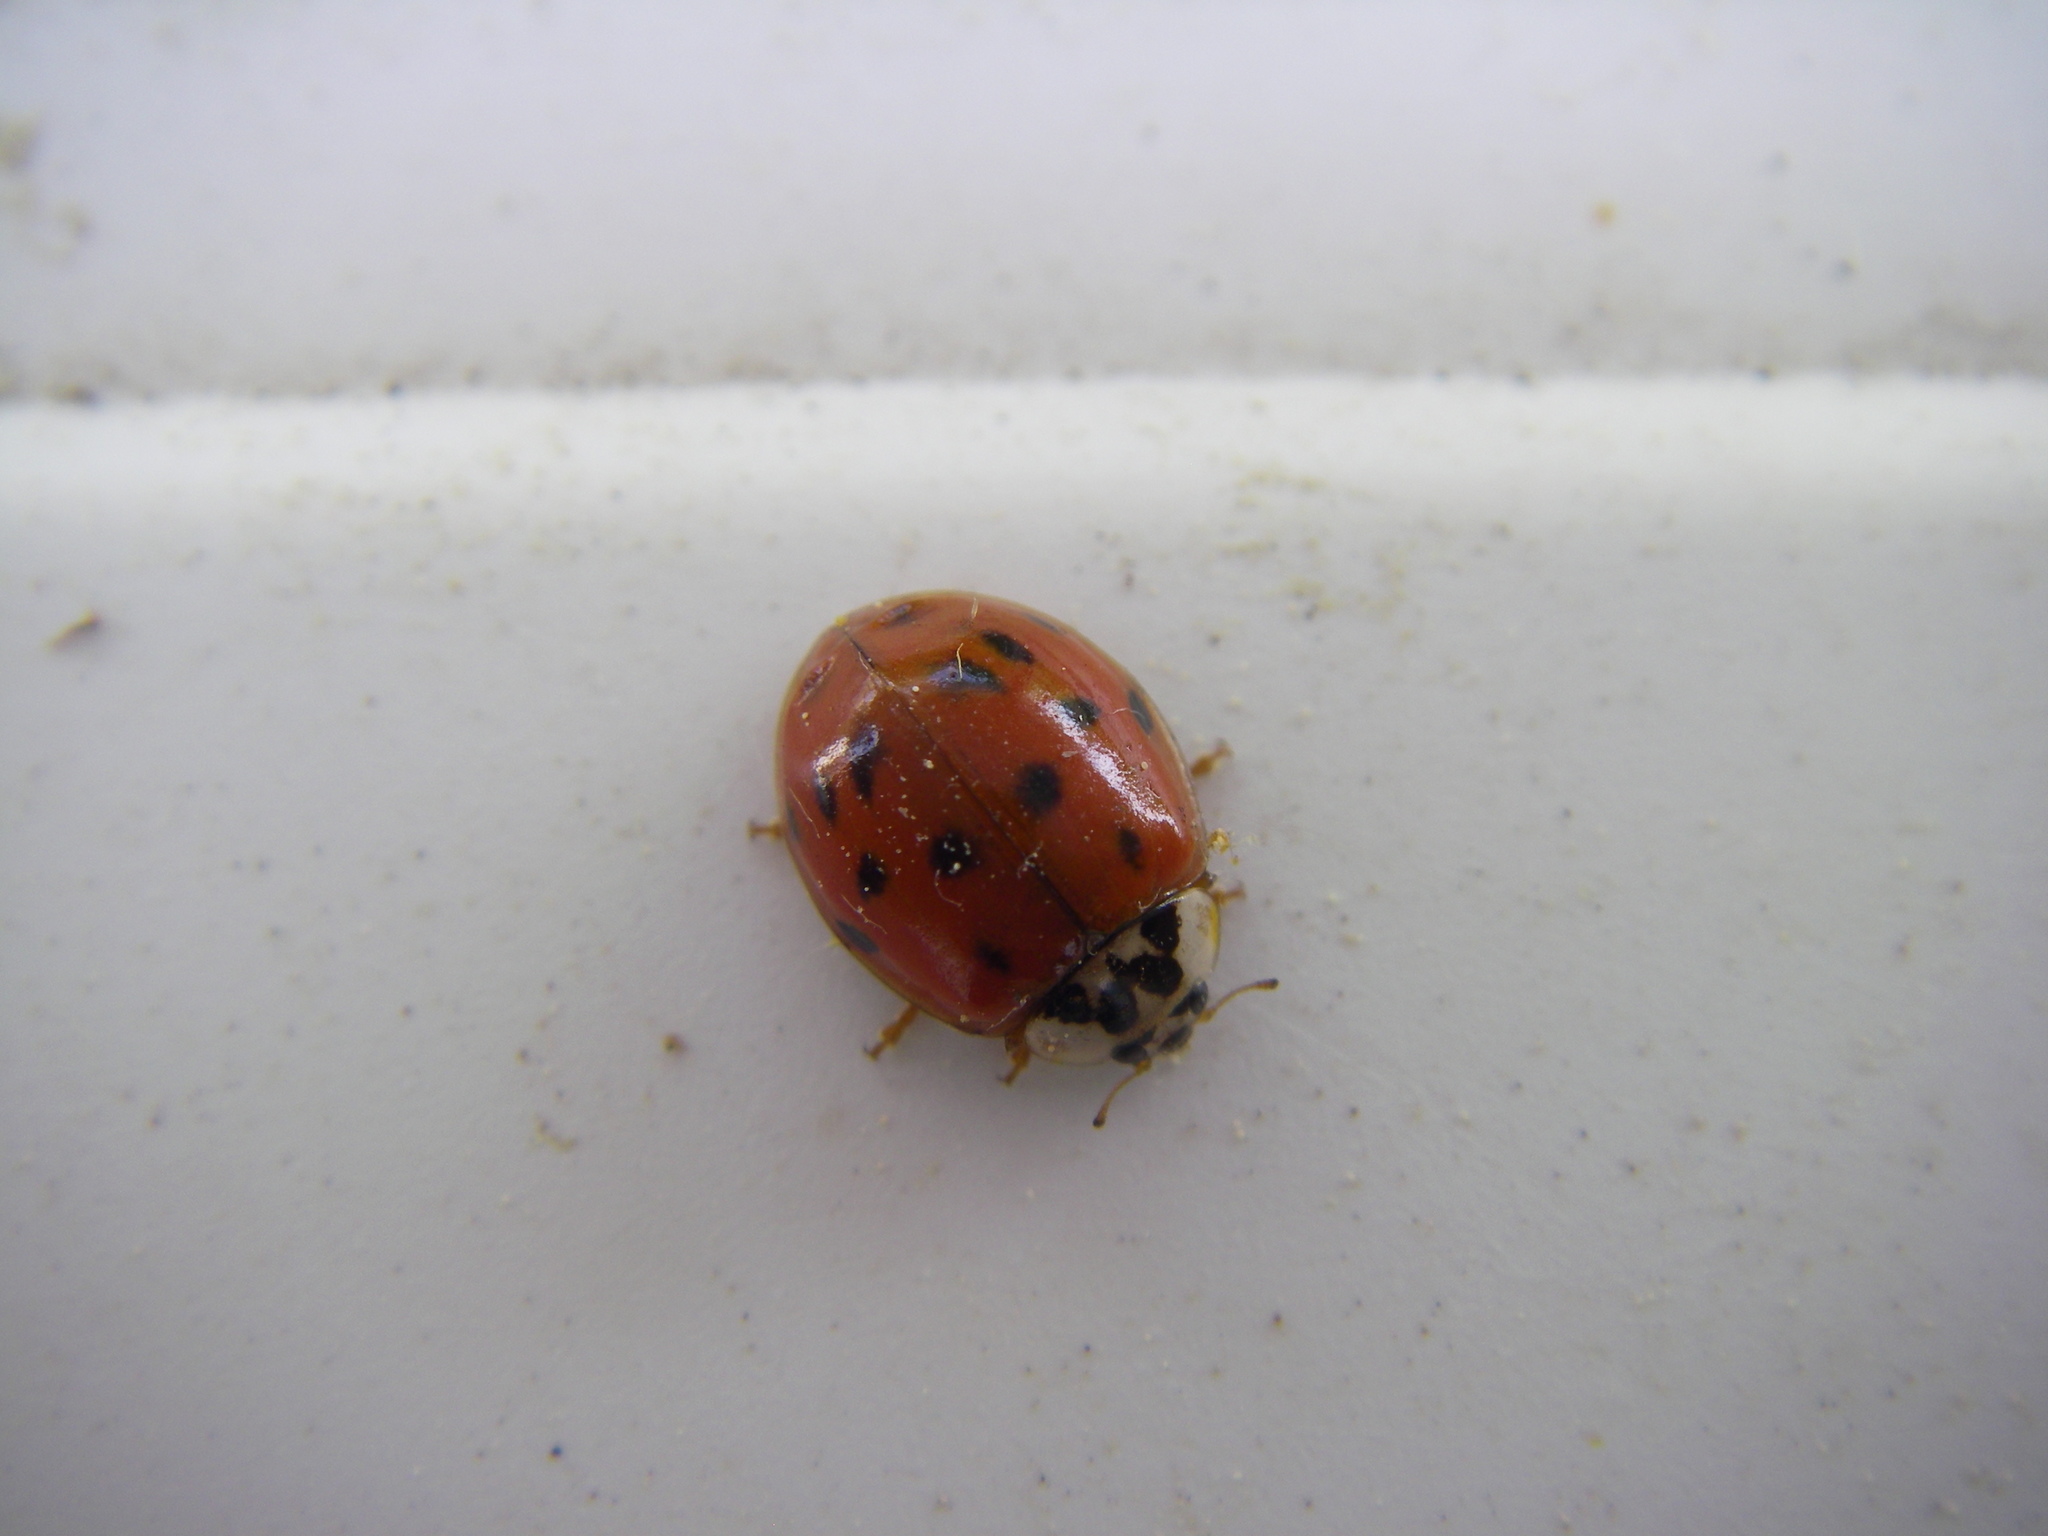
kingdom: Animalia
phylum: Arthropoda
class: Insecta
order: Coleoptera
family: Coccinellidae
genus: Harmonia
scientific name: Harmonia axyridis
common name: Harlequin ladybird
